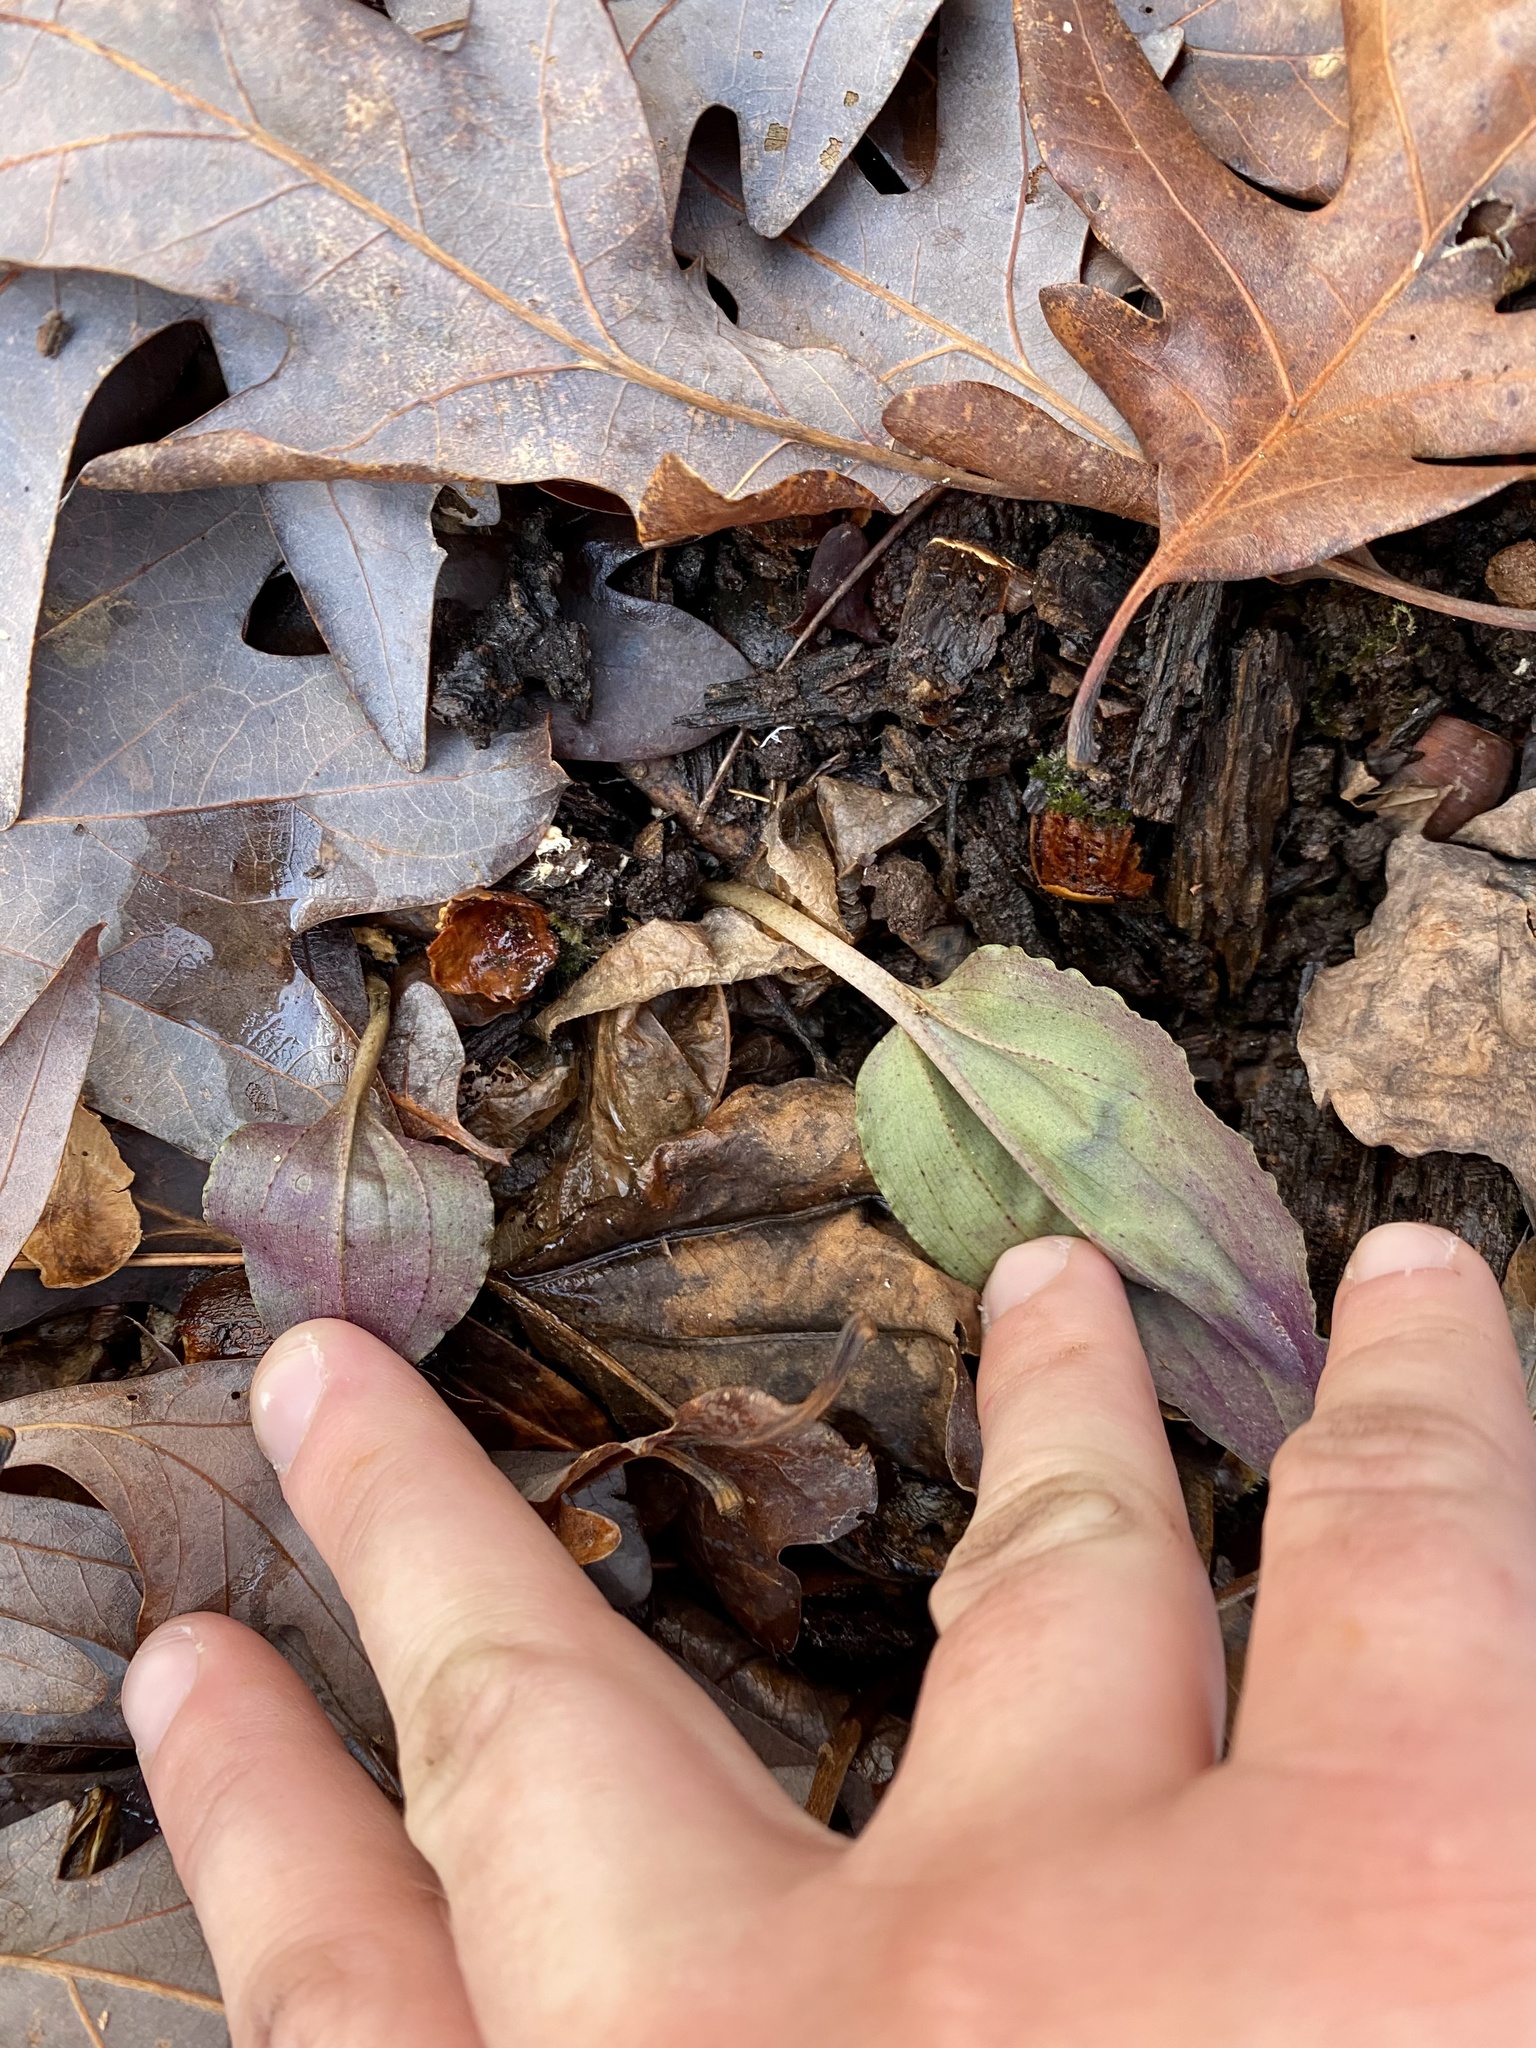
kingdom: Plantae
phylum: Tracheophyta
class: Liliopsida
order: Asparagales
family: Orchidaceae
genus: Tipularia
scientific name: Tipularia discolor
